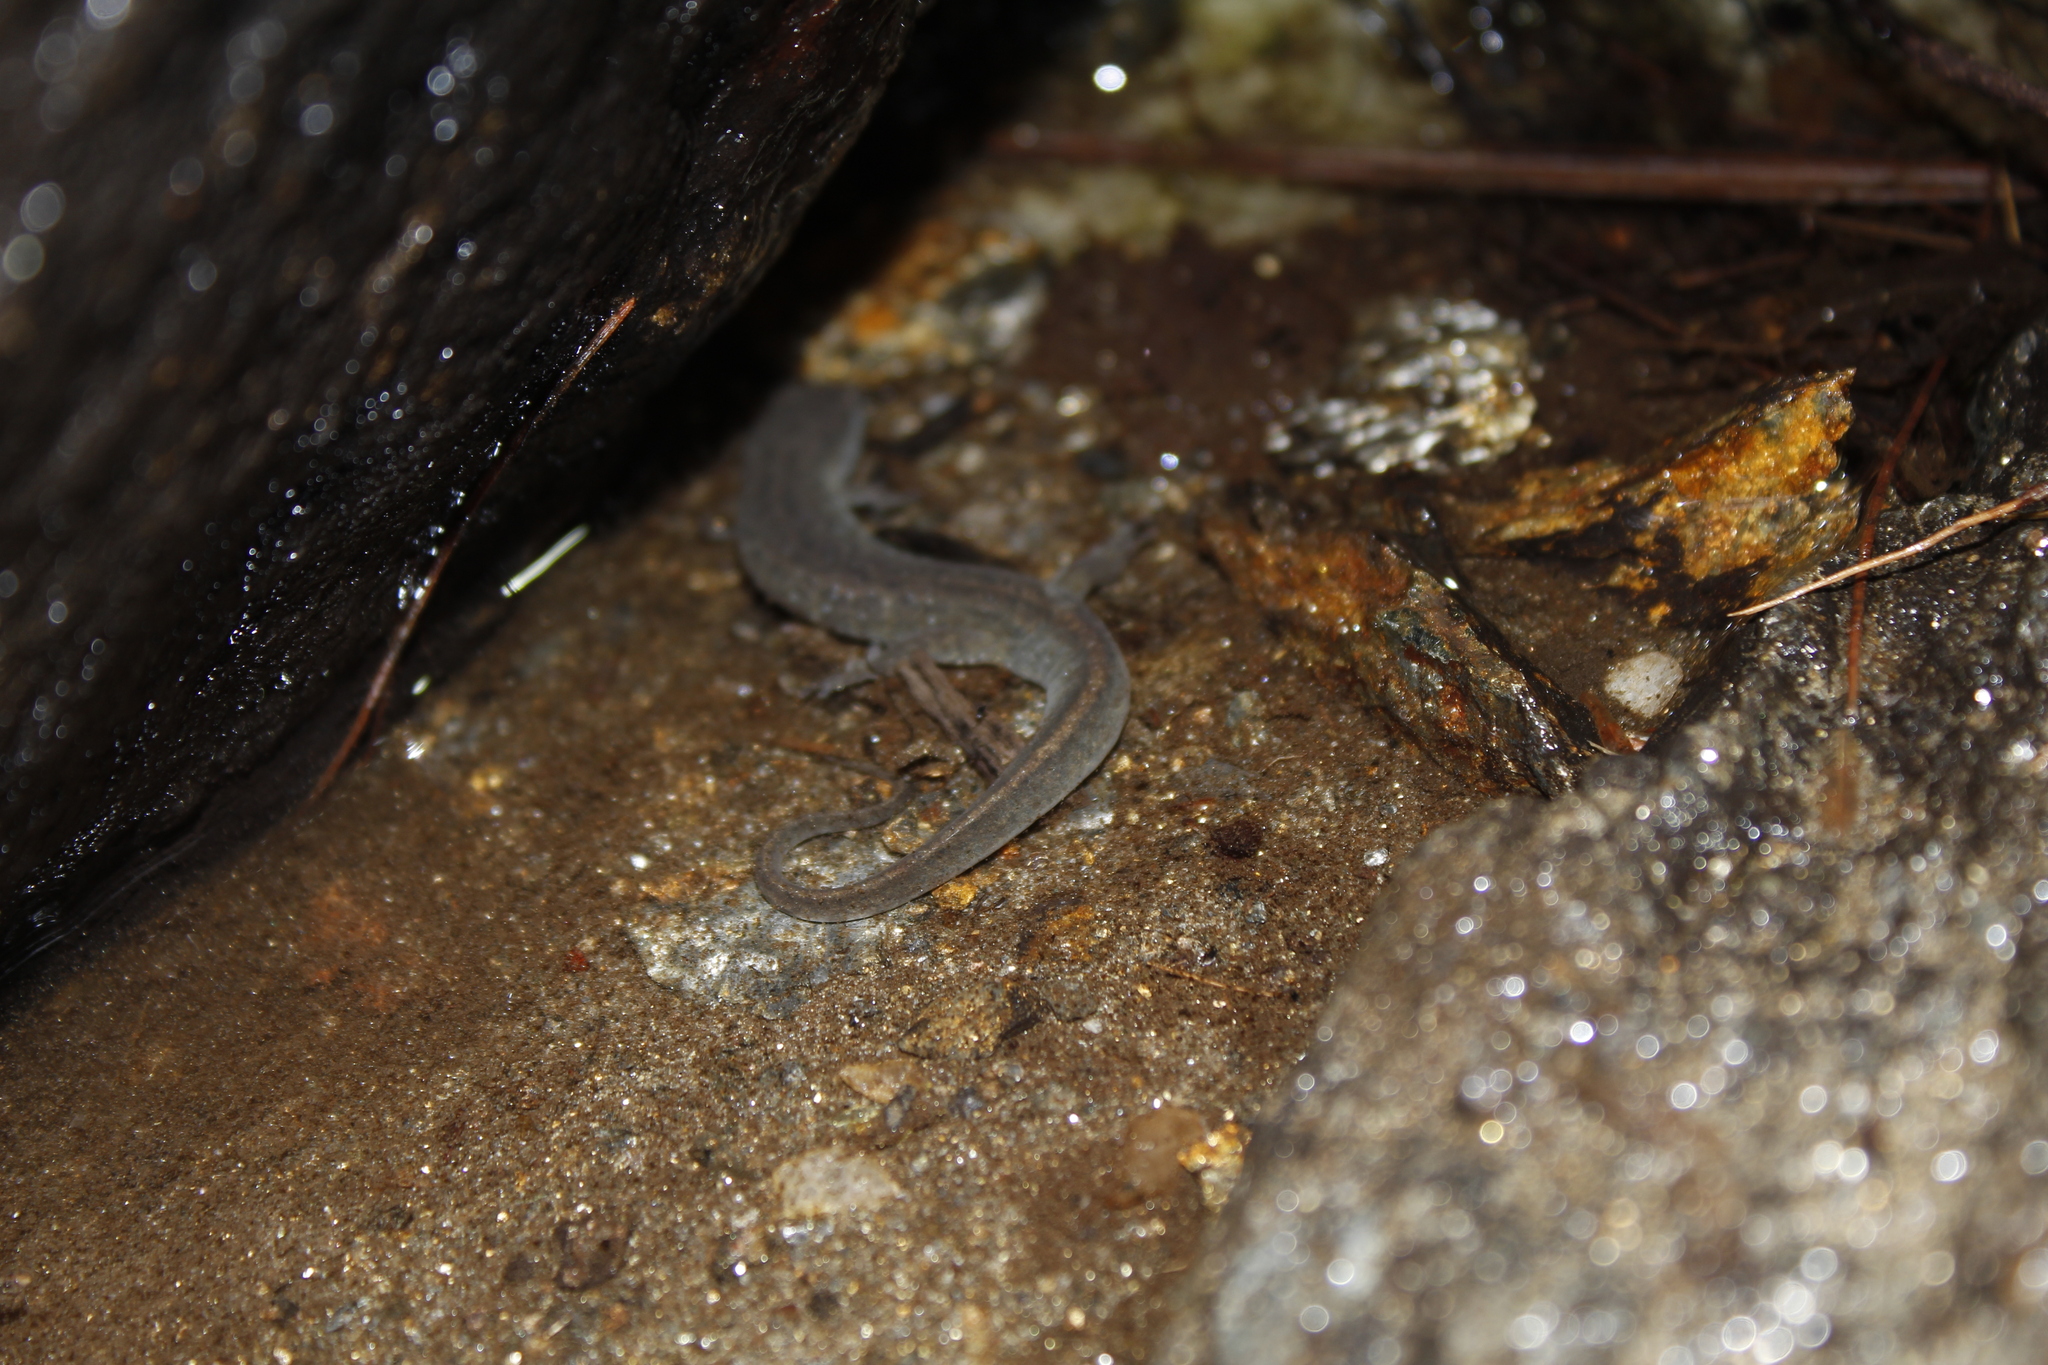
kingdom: Animalia
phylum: Chordata
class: Amphibia
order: Caudata
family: Plethodontidae
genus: Desmognathus
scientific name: Desmognathus fuscus
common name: Northern dusky salamander
